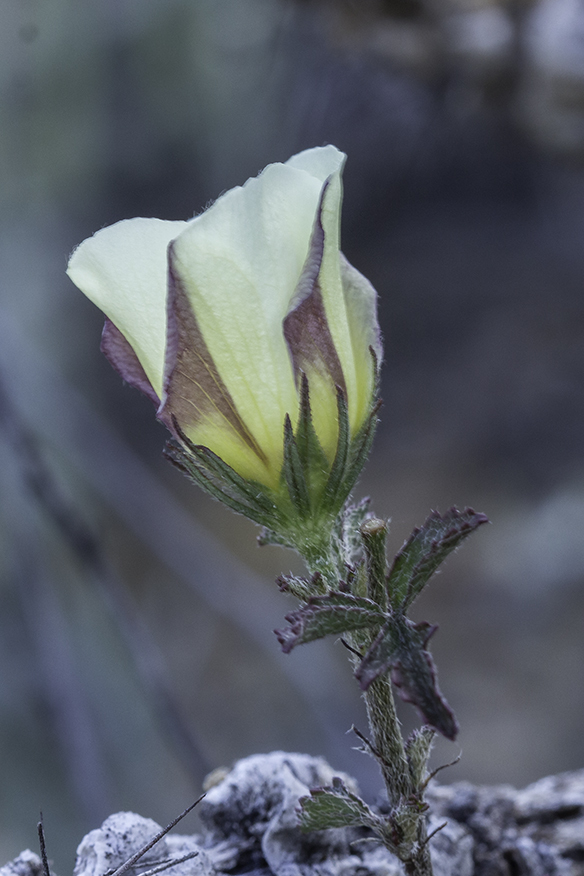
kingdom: Plantae
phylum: Tracheophyta
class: Magnoliopsida
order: Malvales
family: Malvaceae
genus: Hibiscus
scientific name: Hibiscus coulteri
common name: Desert rose-mallow
